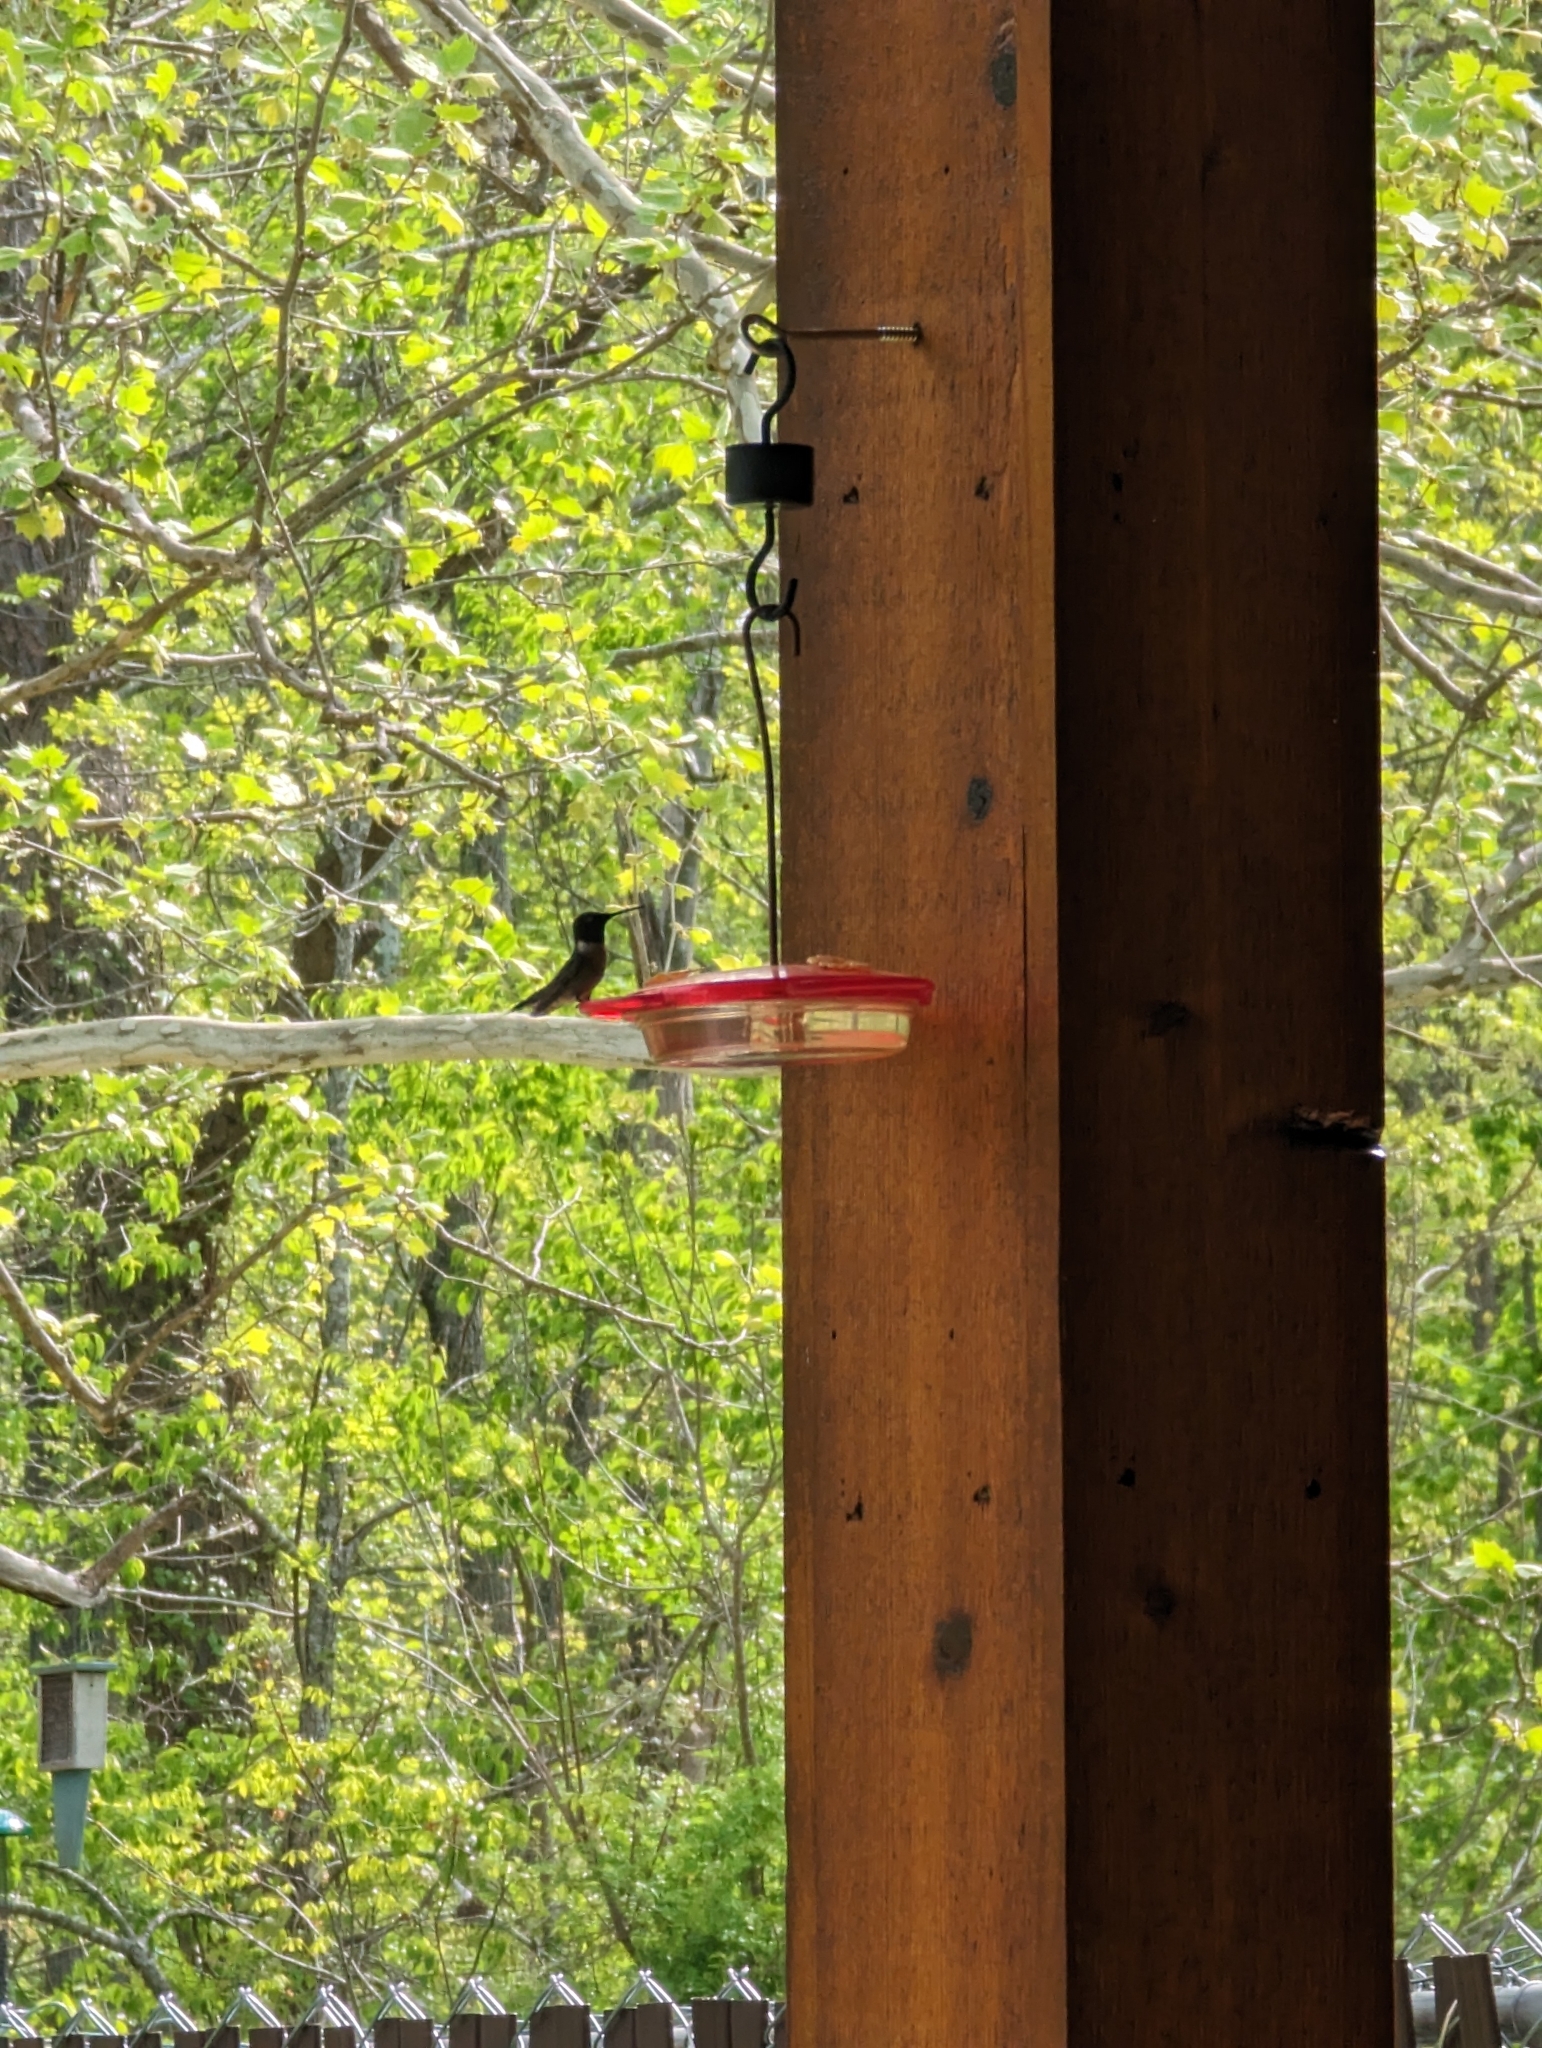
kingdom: Animalia
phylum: Chordata
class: Aves
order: Apodiformes
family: Trochilidae
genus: Archilochus
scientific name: Archilochus colubris
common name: Ruby-throated hummingbird
